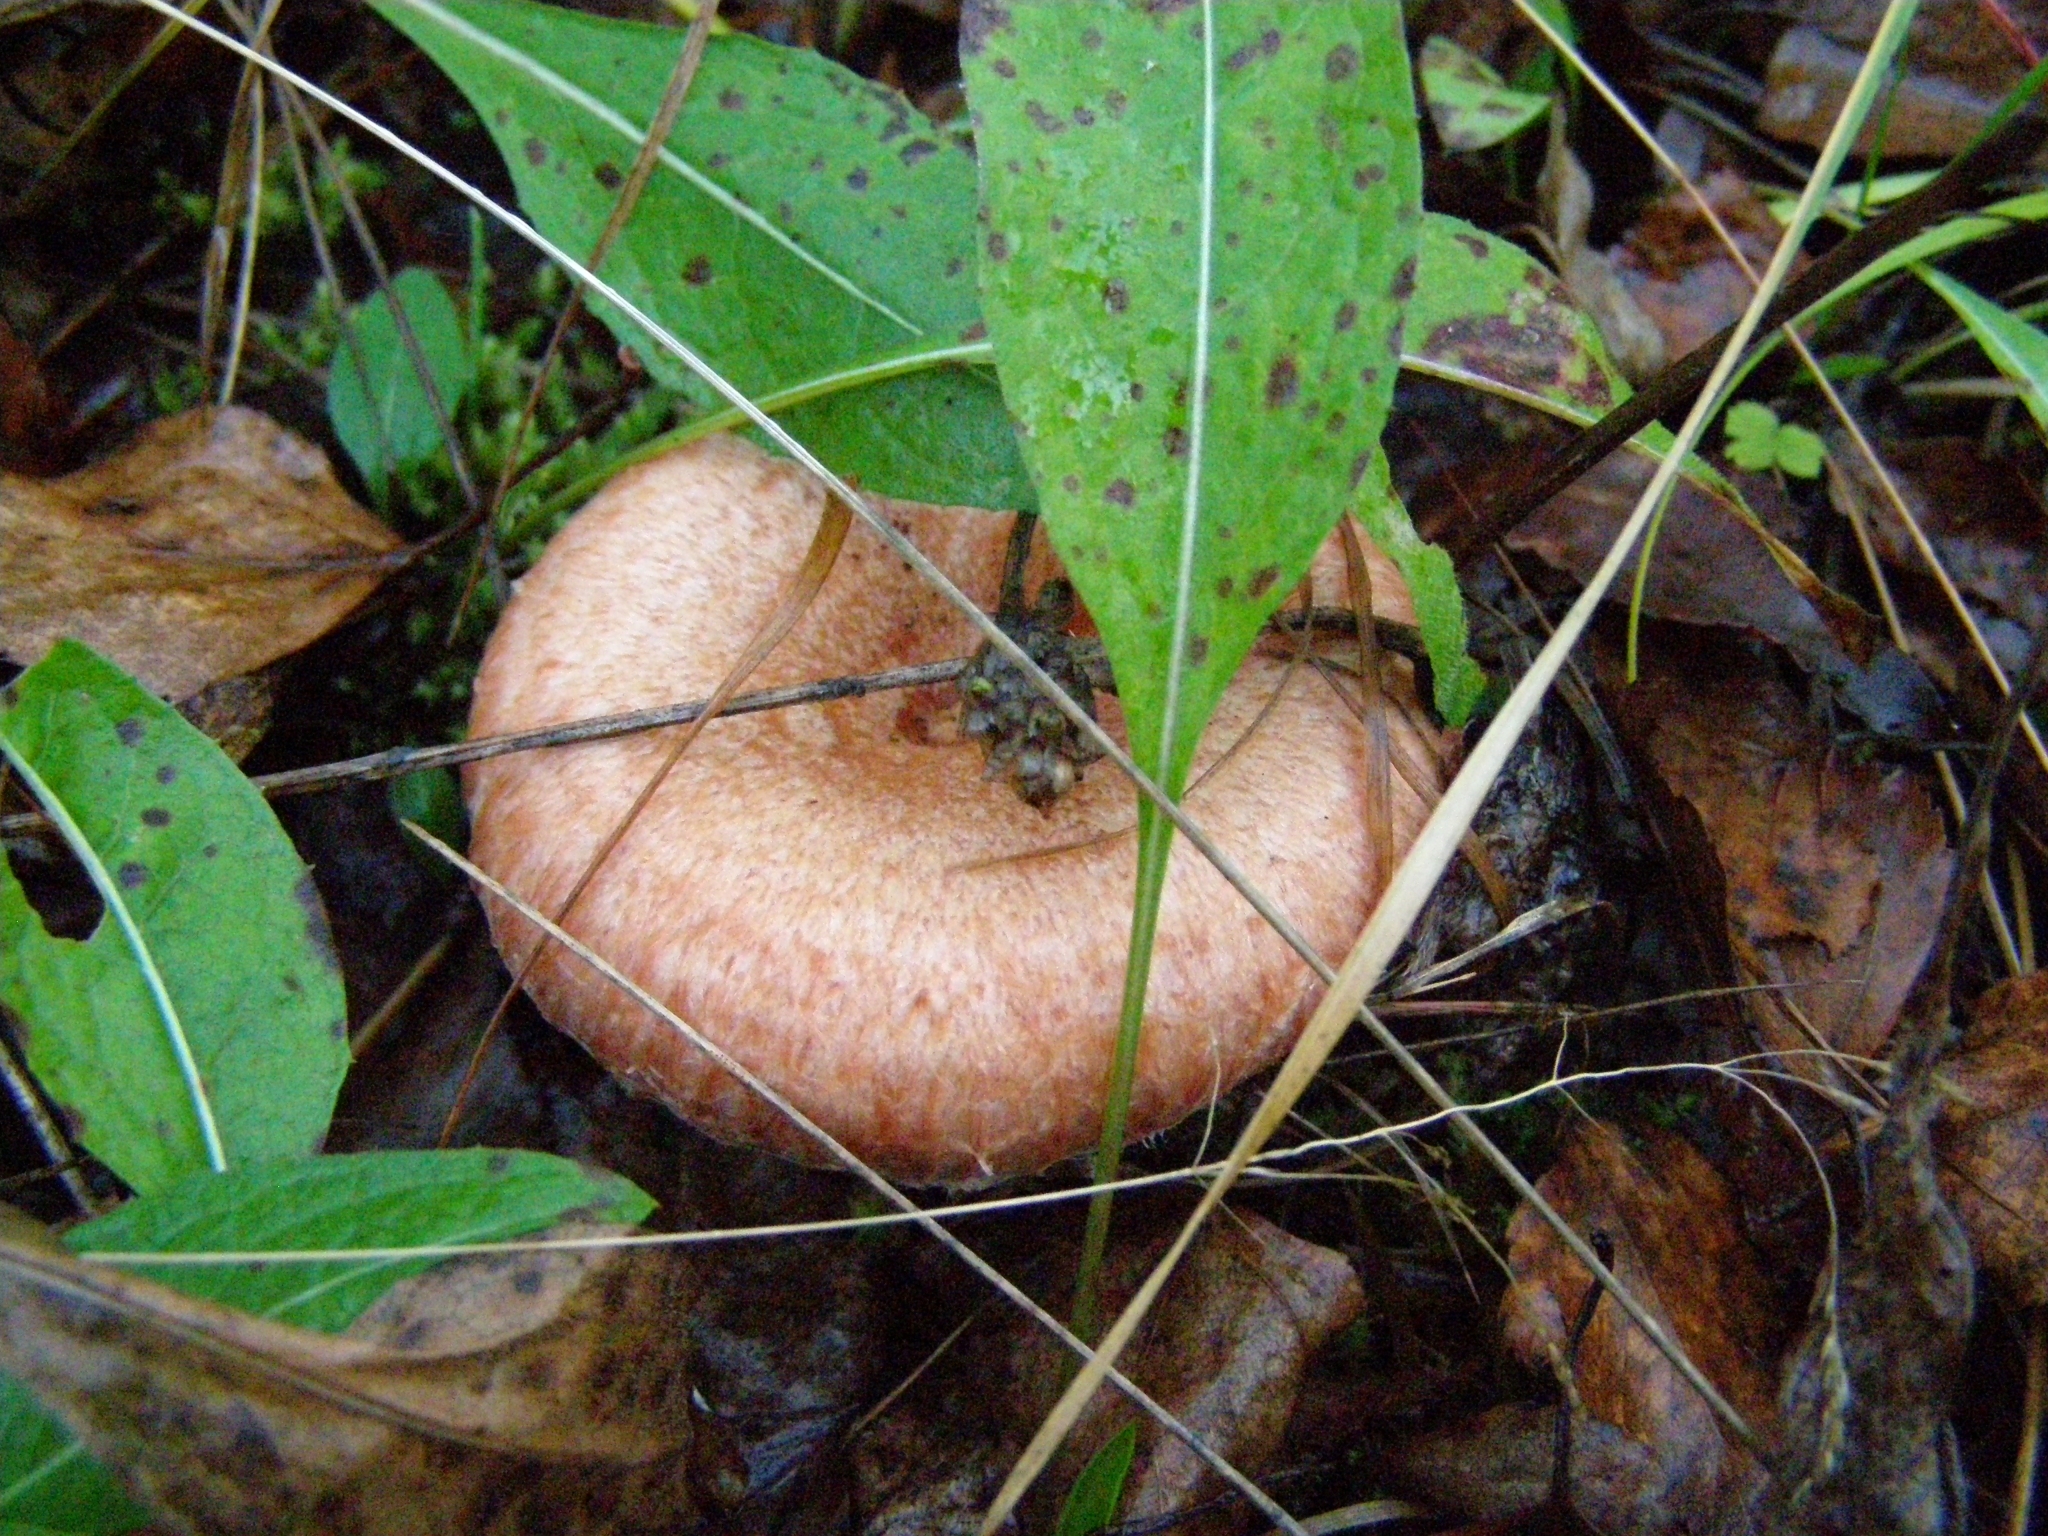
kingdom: Fungi
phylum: Basidiomycota
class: Agaricomycetes
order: Russulales
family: Russulaceae
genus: Lactarius
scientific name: Lactarius torminosus
